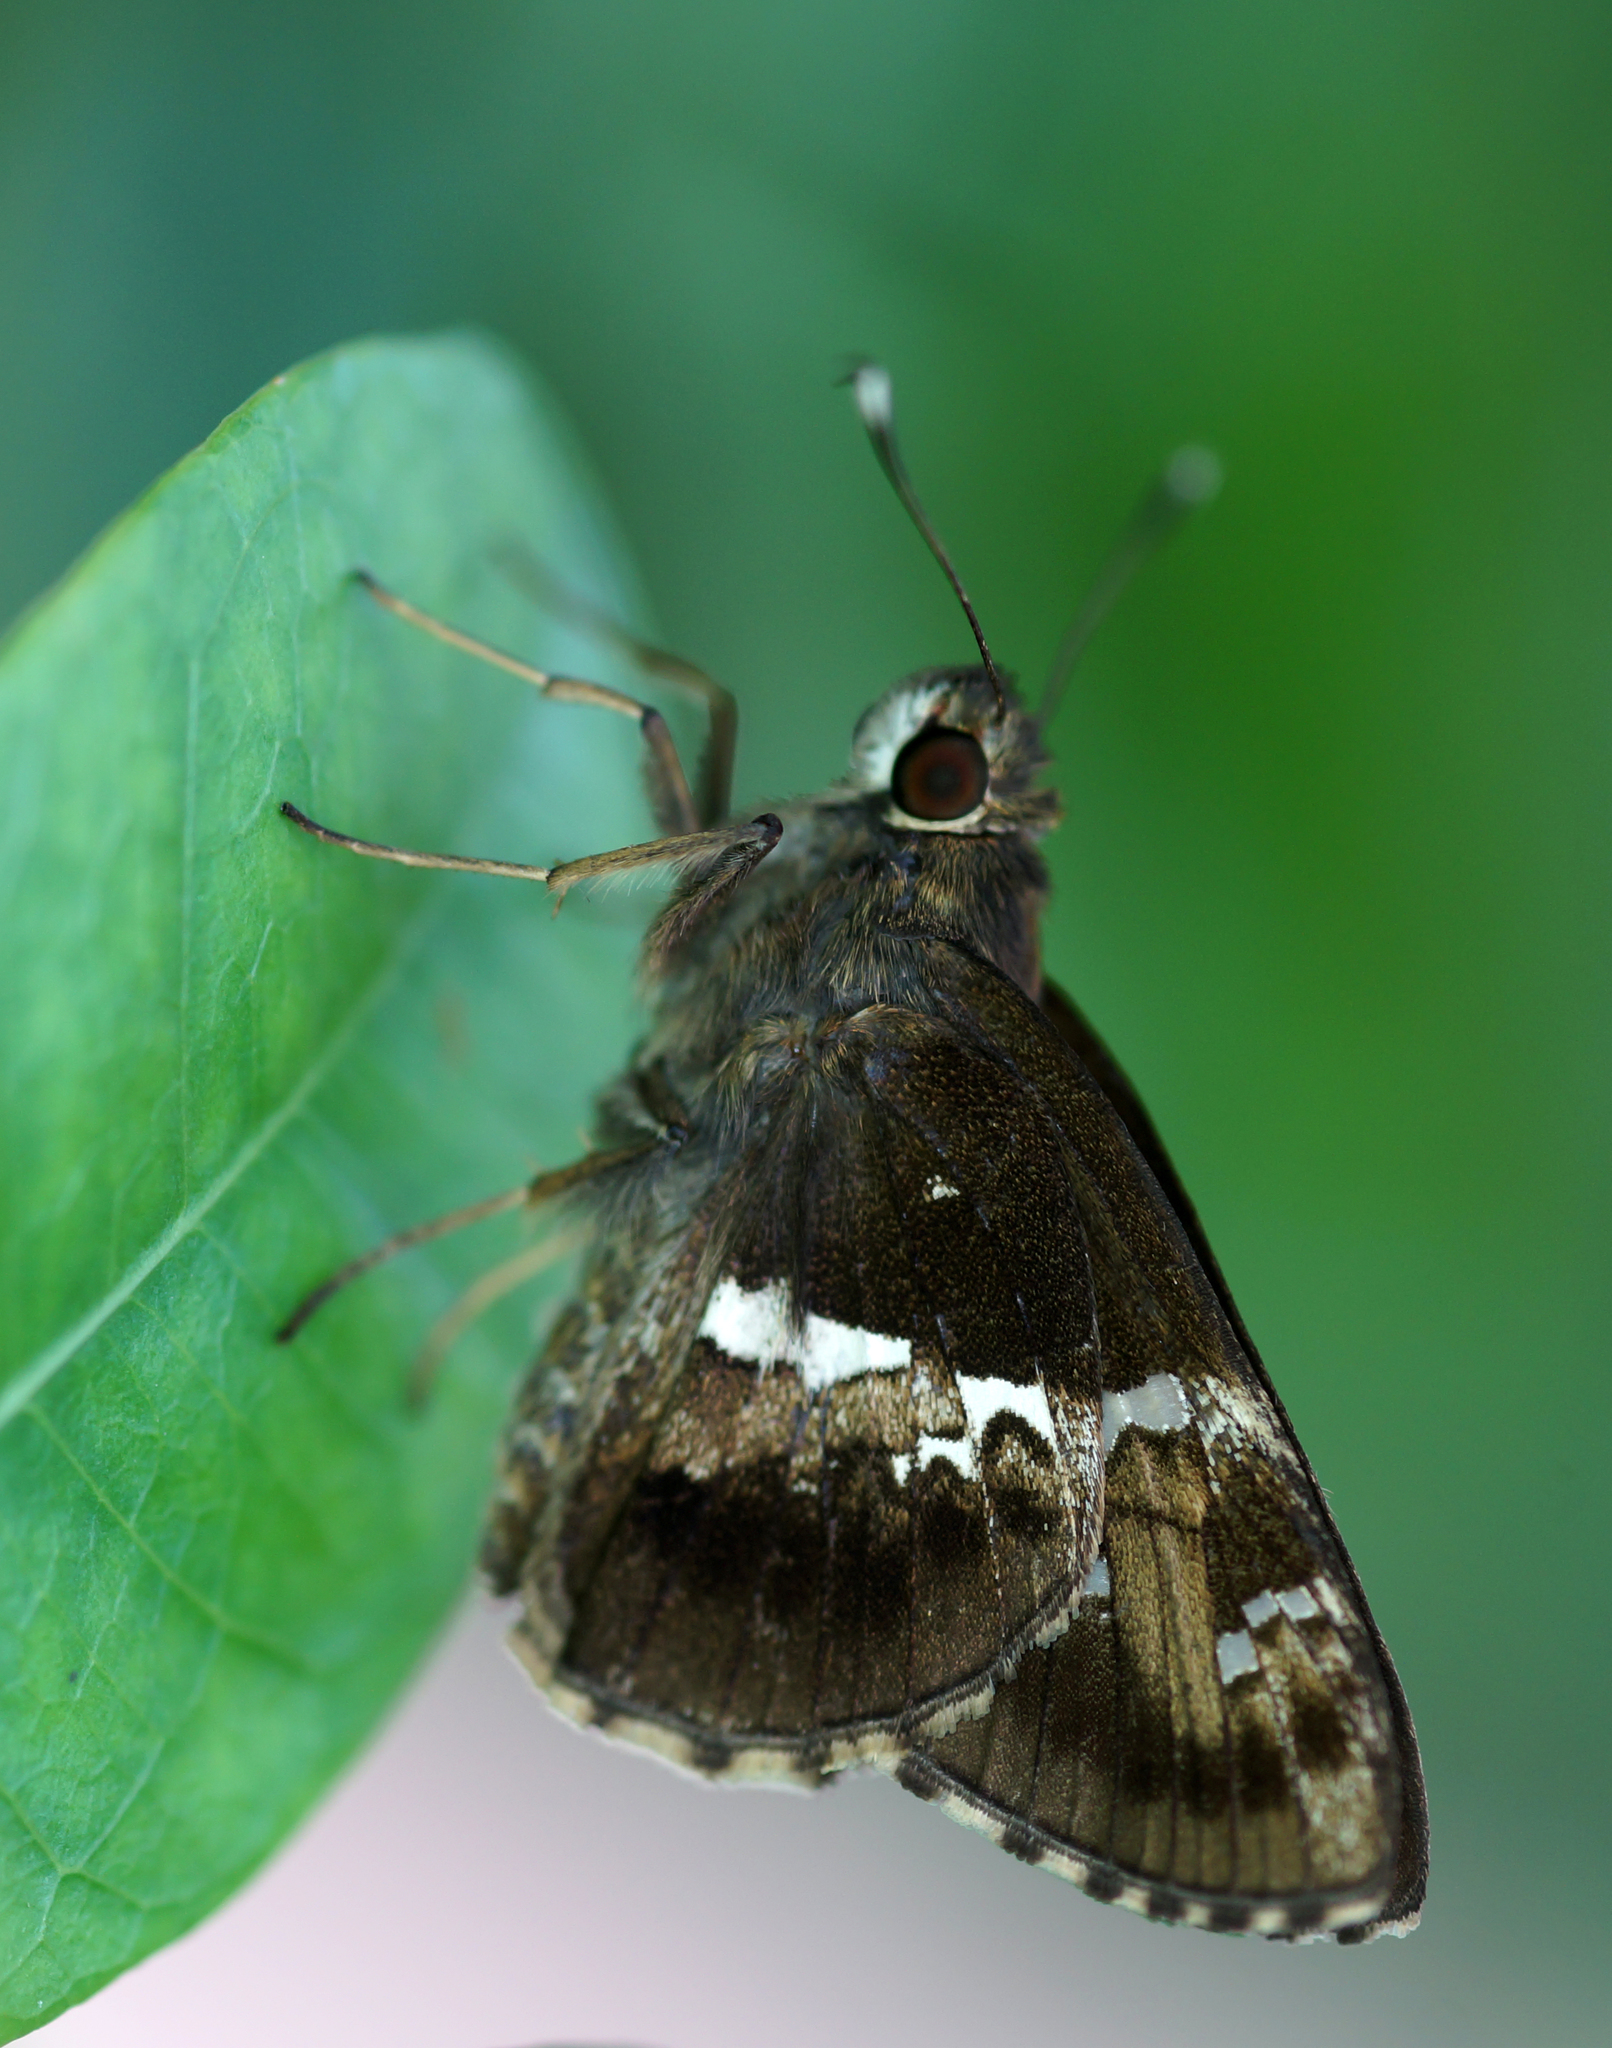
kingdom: Animalia
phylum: Arthropoda
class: Insecta
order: Lepidoptera
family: Hesperiidae
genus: Hyarotis
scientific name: Hyarotis adrastus
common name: Tree flitter
